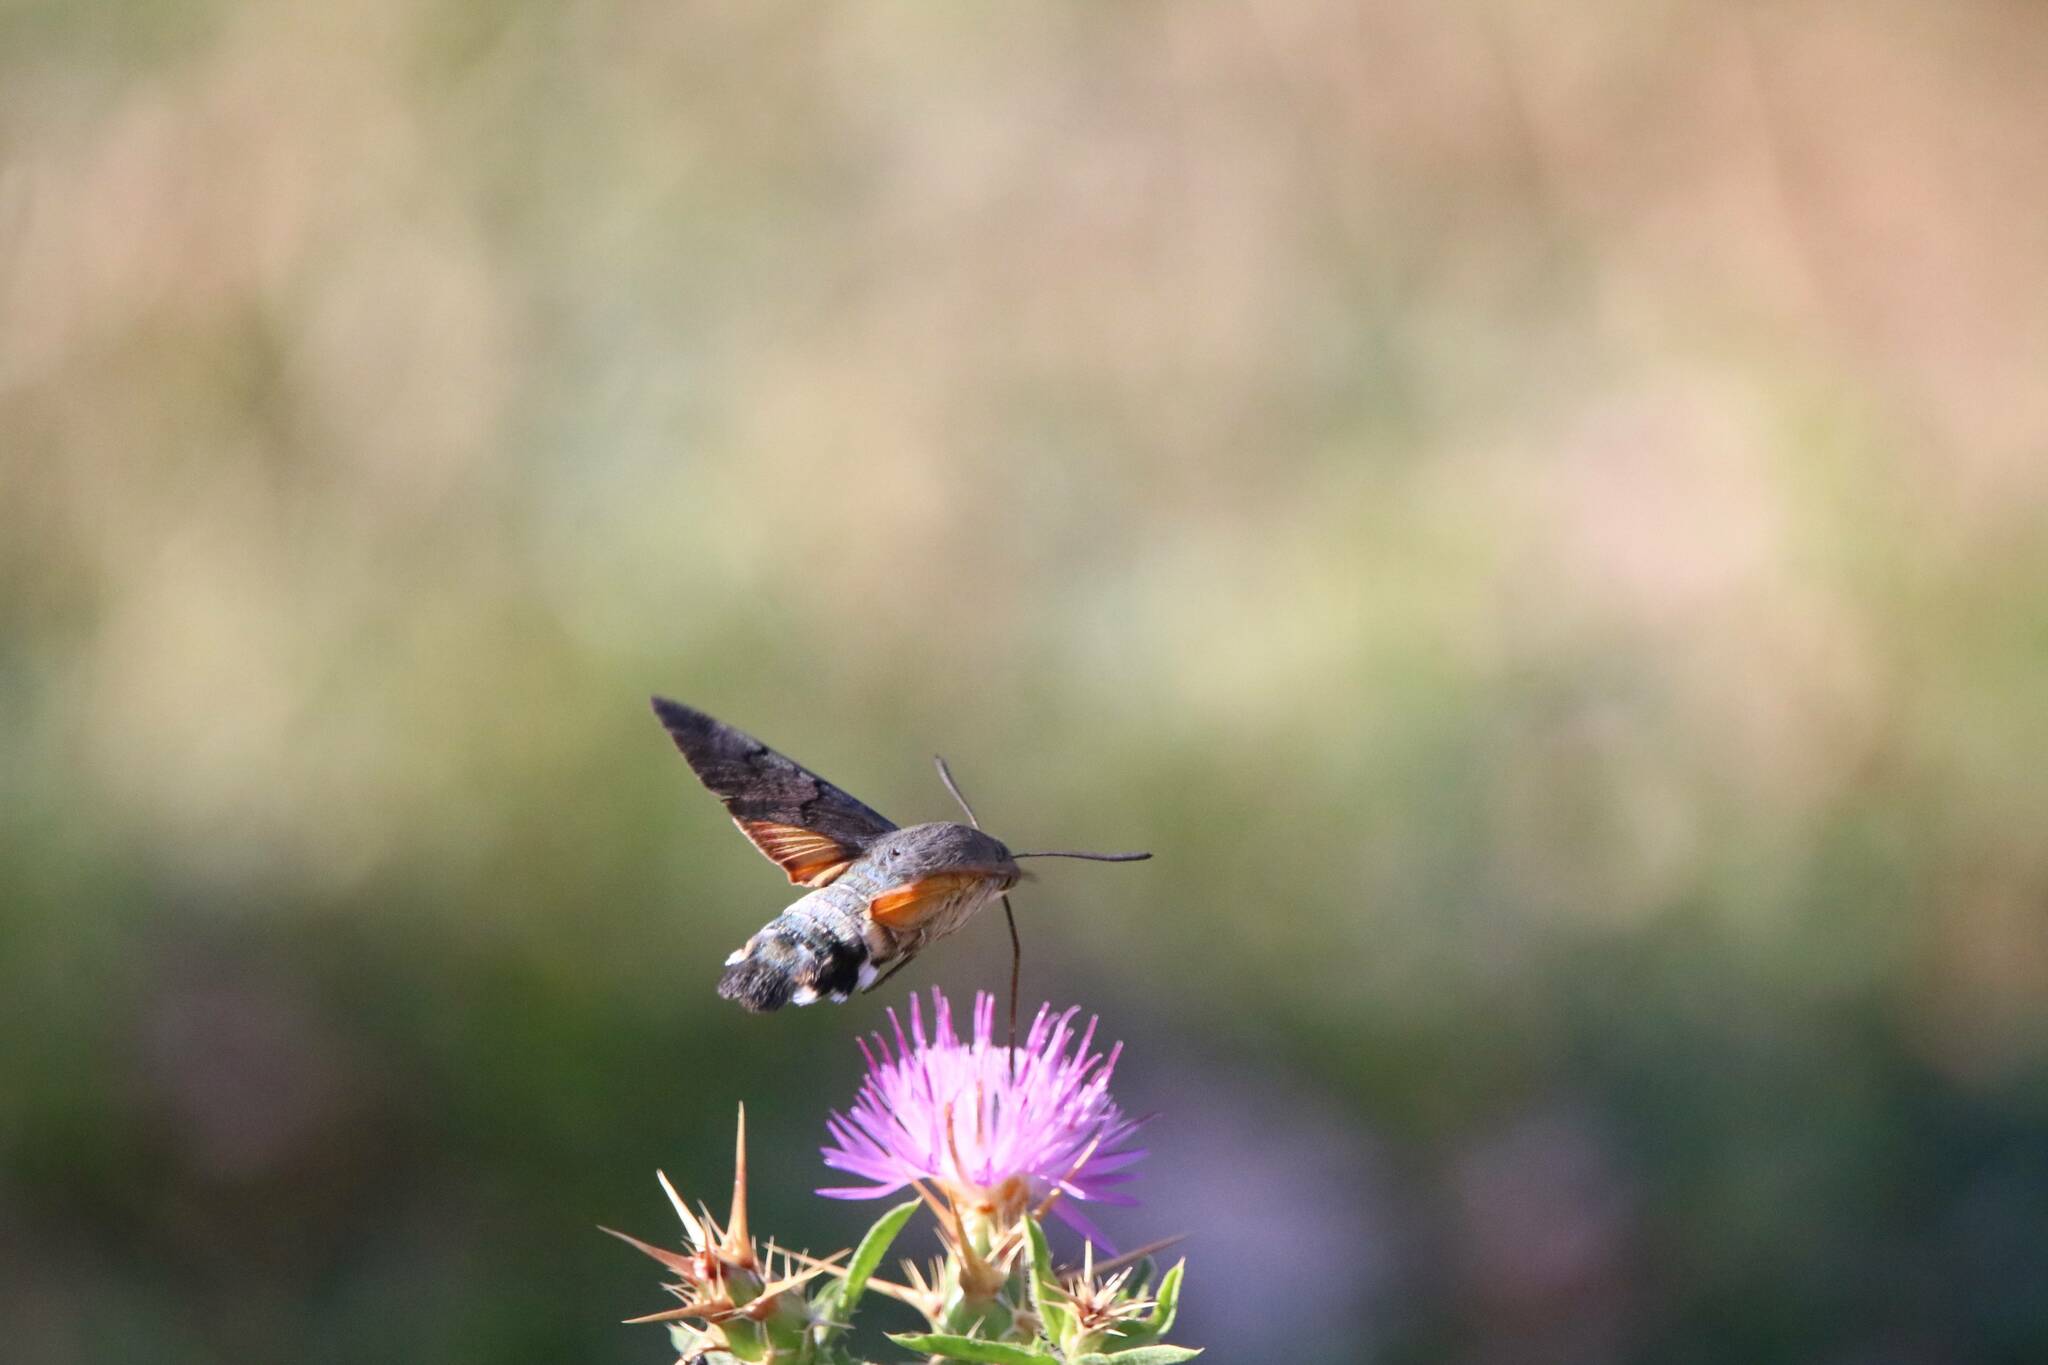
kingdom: Animalia
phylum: Arthropoda
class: Insecta
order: Lepidoptera
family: Sphingidae
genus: Macroglossum
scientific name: Macroglossum stellatarum
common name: Humming-bird hawk-moth
